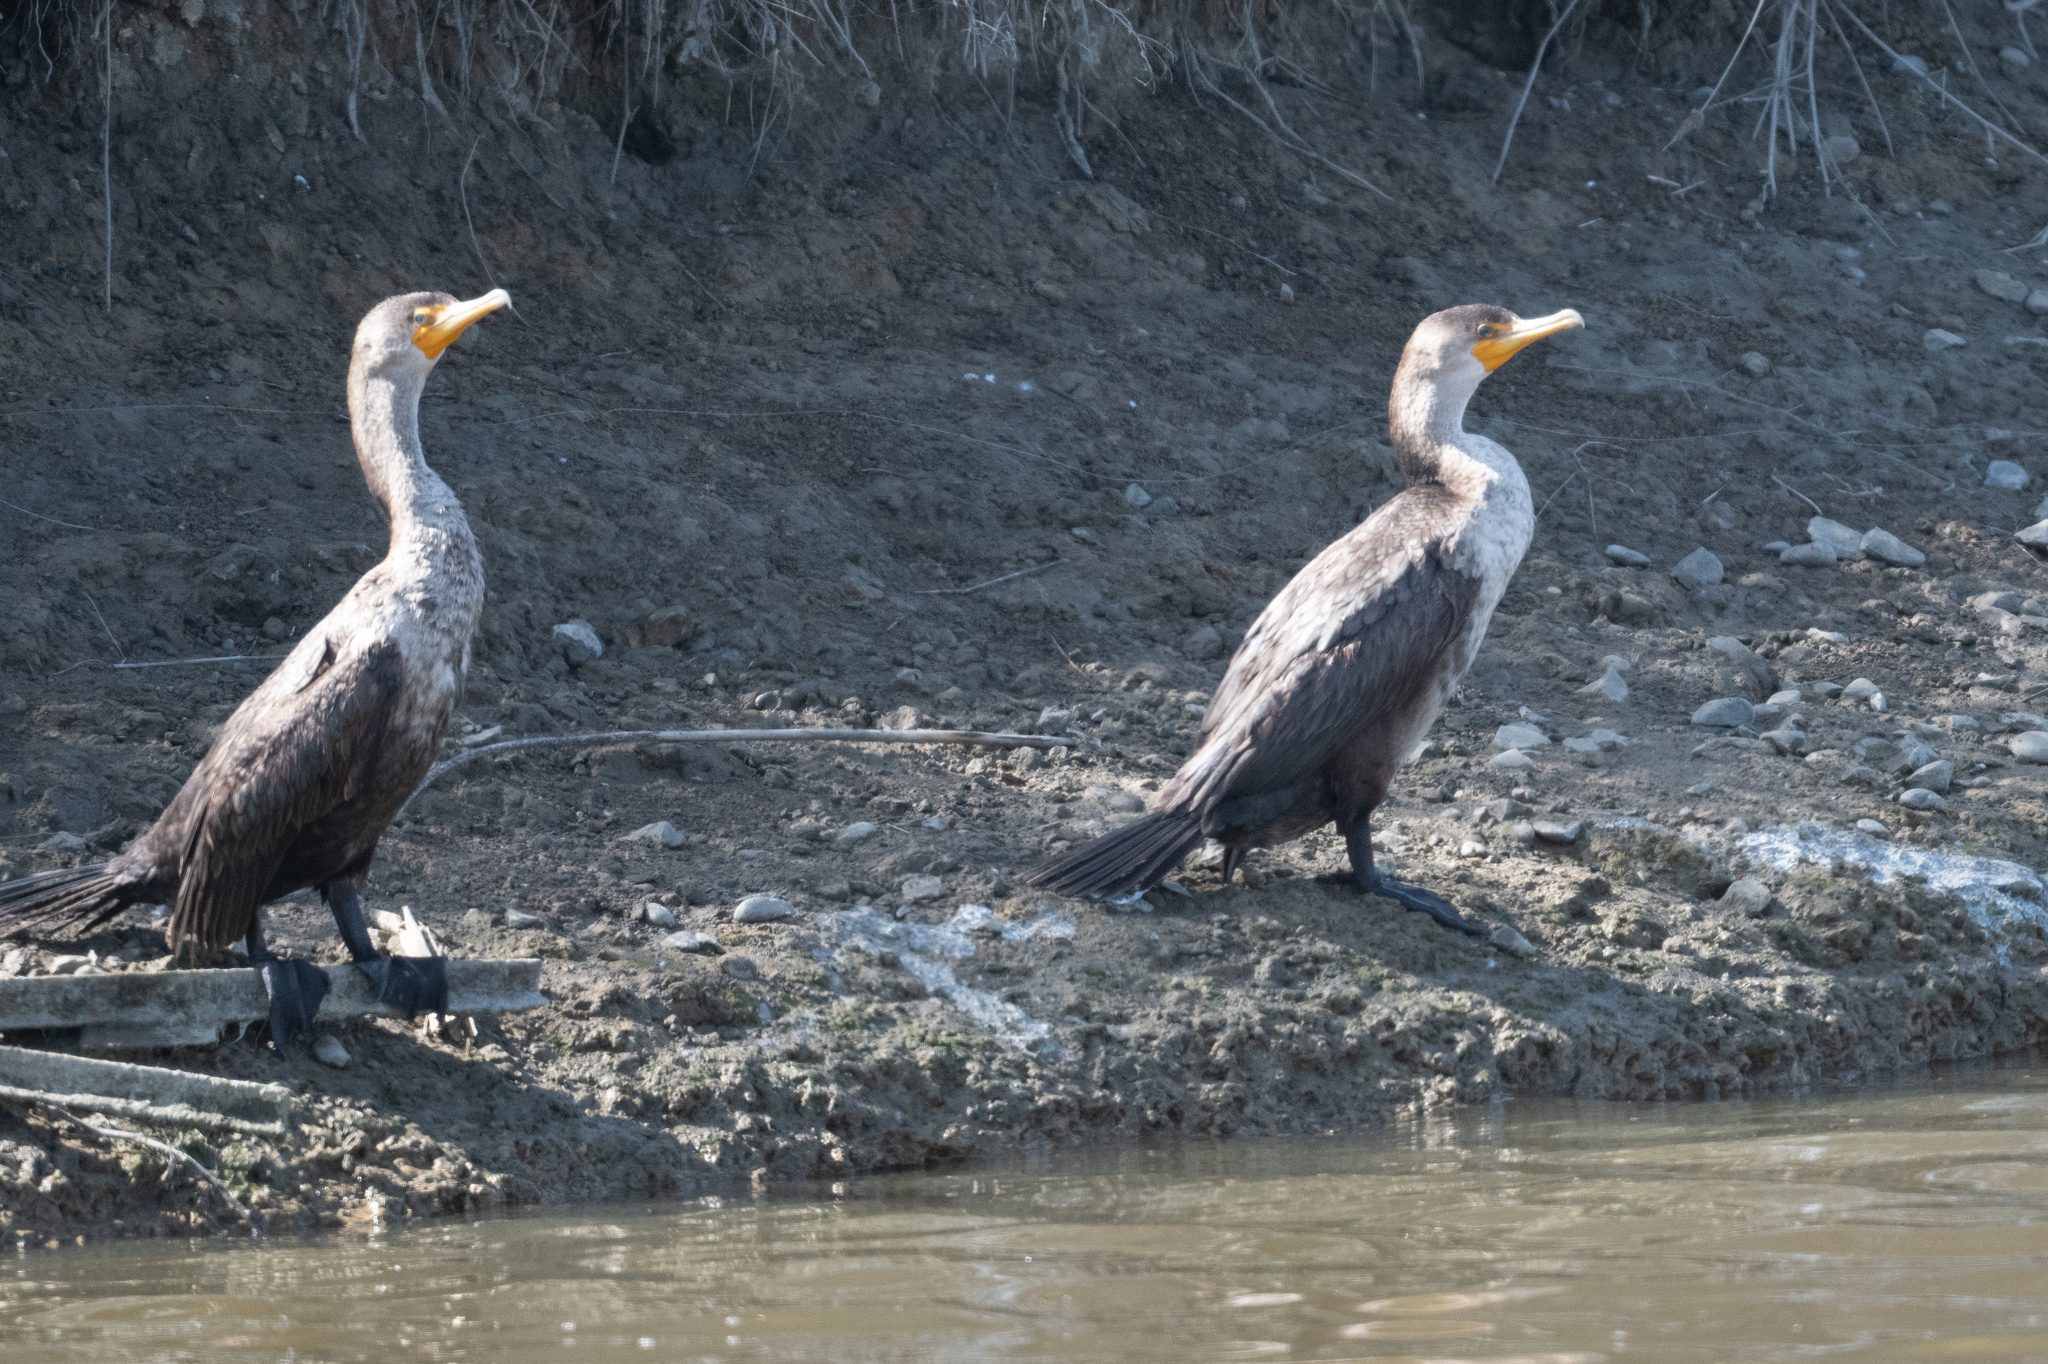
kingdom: Animalia
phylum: Chordata
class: Aves
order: Suliformes
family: Phalacrocoracidae
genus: Phalacrocorax
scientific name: Phalacrocorax auritus
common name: Double-crested cormorant
